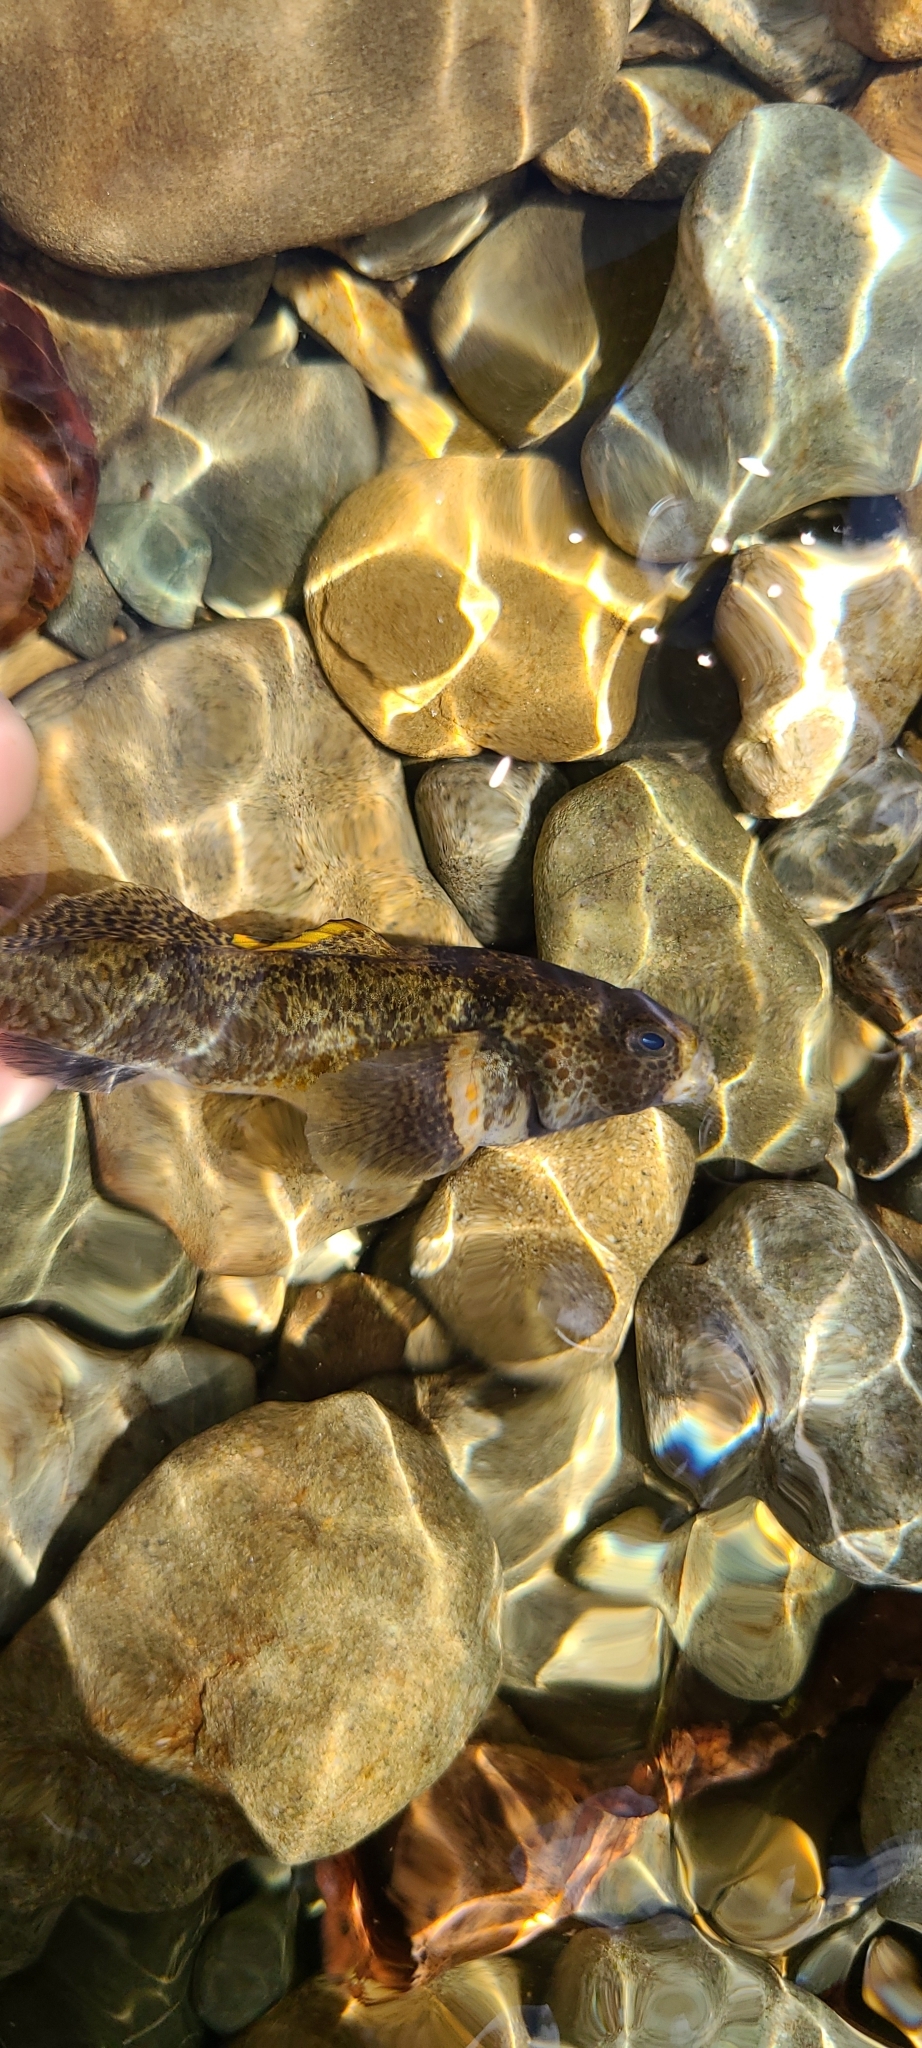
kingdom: Animalia
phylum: Chordata
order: Perciformes
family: Eleotridae
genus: Gobiomorphus
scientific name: Gobiomorphus breviceps
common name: Upland bully
